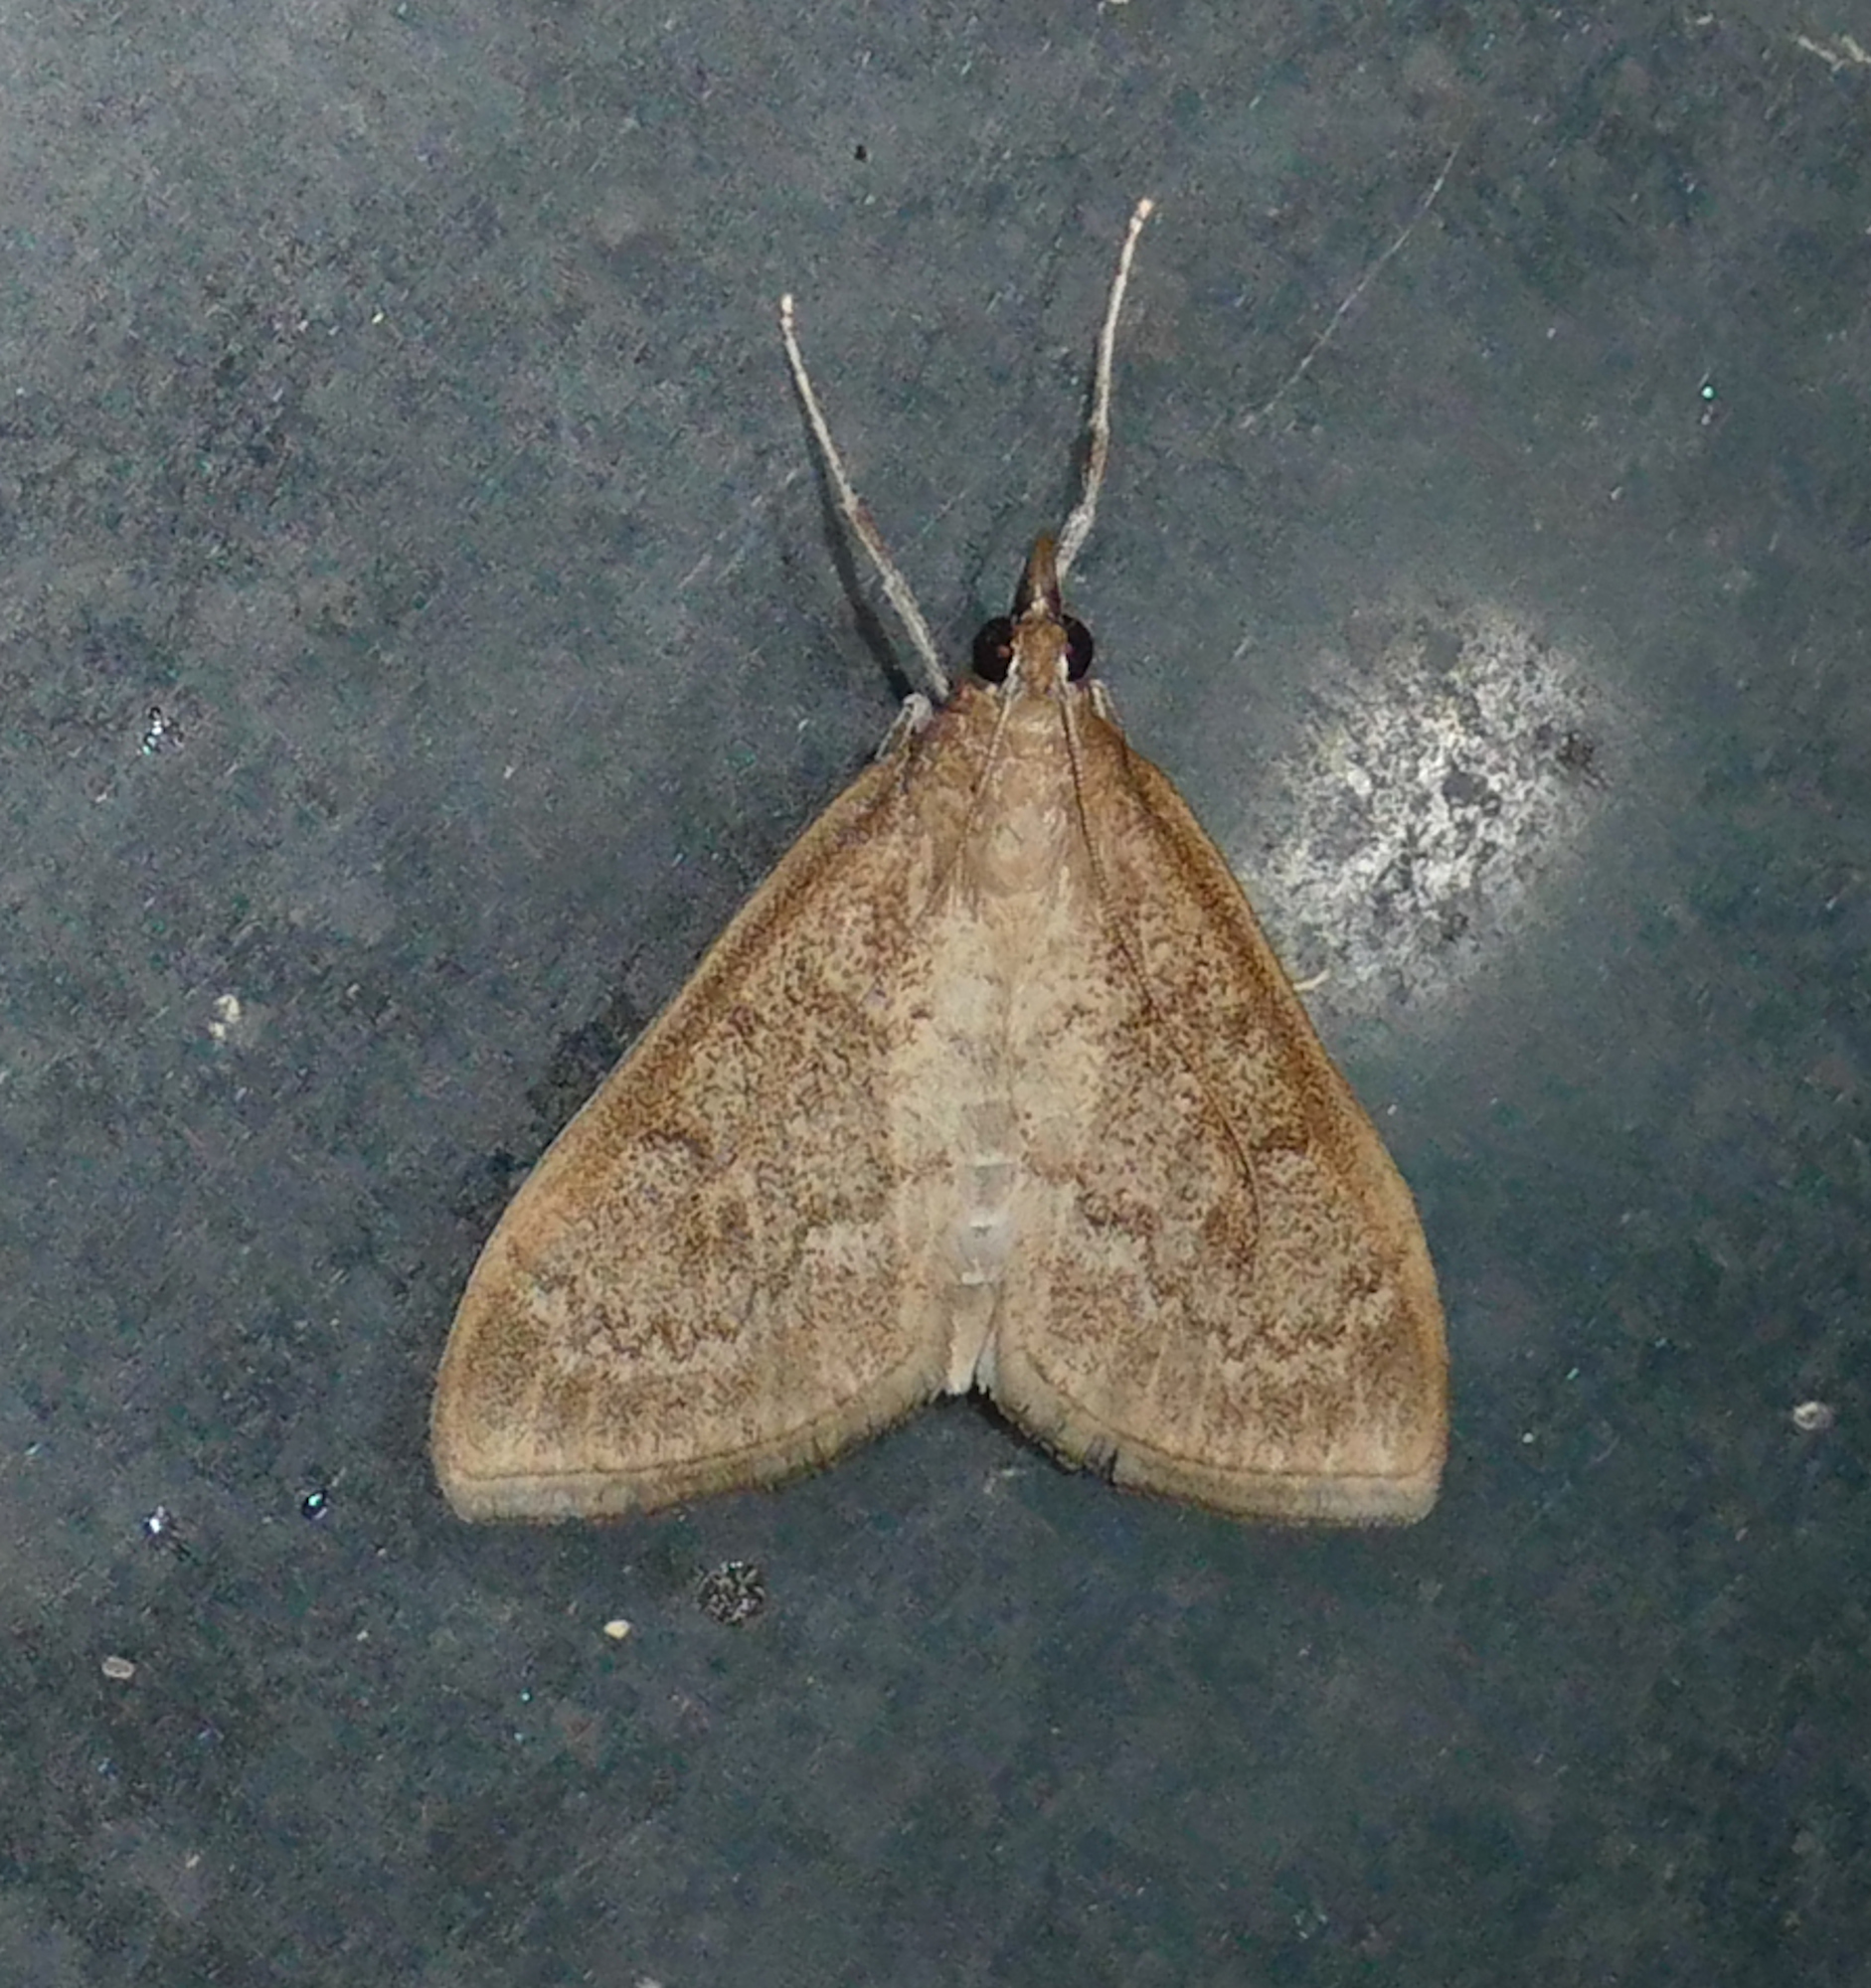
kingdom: Animalia
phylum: Arthropoda
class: Insecta
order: Lepidoptera
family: Crambidae
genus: Saucrobotys
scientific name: Saucrobotys futilalis
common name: Dogbane saucrobotys moth
